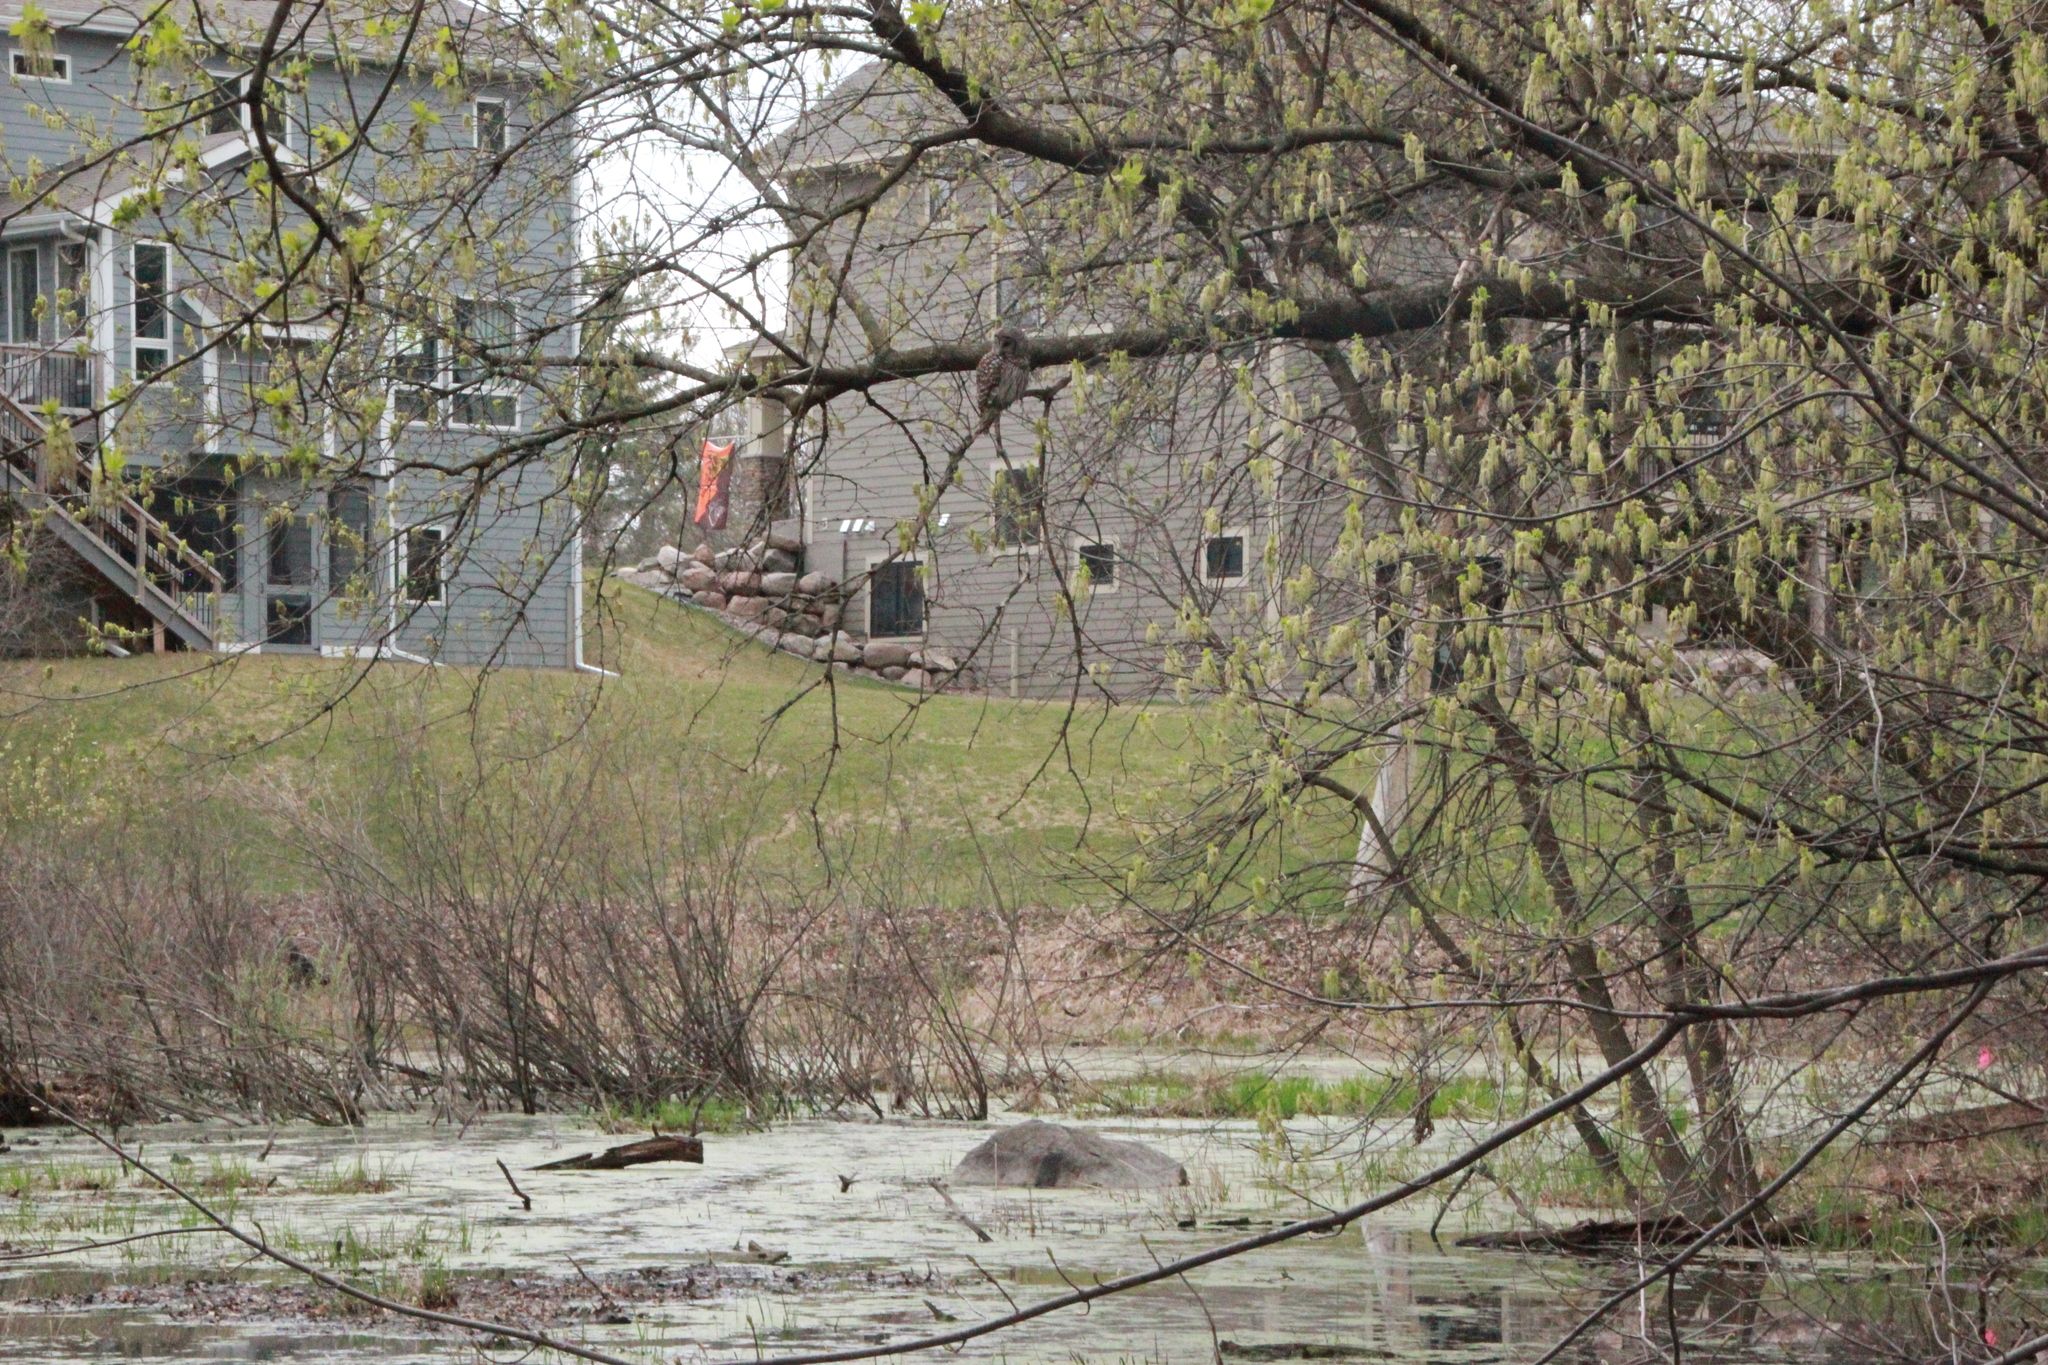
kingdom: Animalia
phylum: Chordata
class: Aves
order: Strigiformes
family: Strigidae
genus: Strix
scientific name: Strix varia
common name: Barred owl
